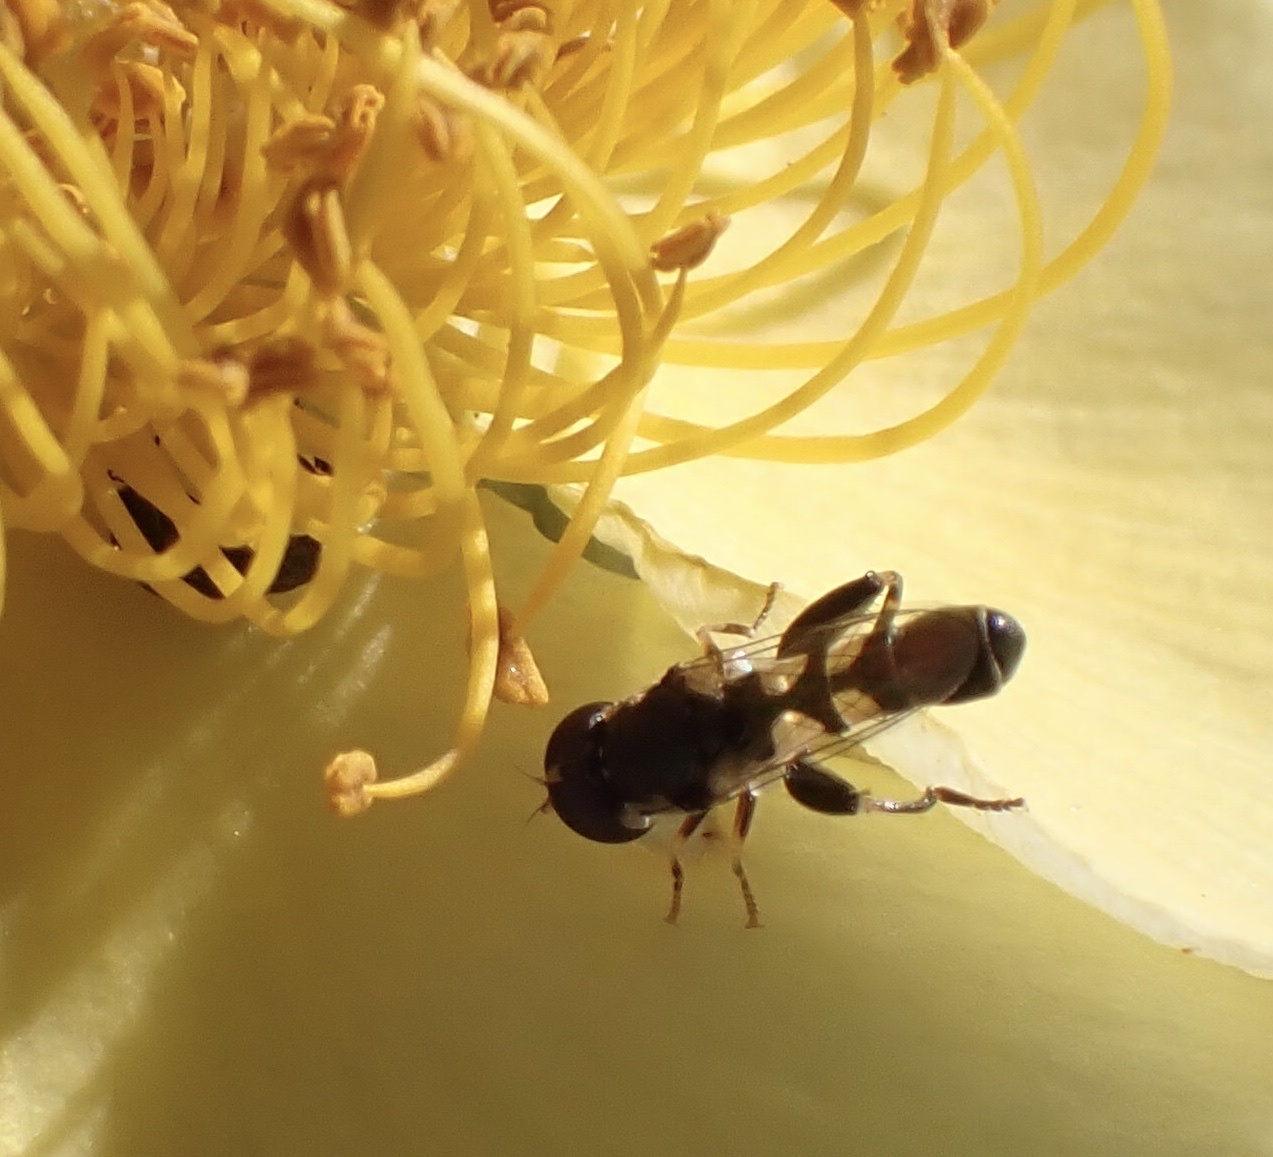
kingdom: Animalia
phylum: Arthropoda
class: Insecta
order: Diptera
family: Syrphidae
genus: Syritta
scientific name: Syritta pipiens
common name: Hover fly
